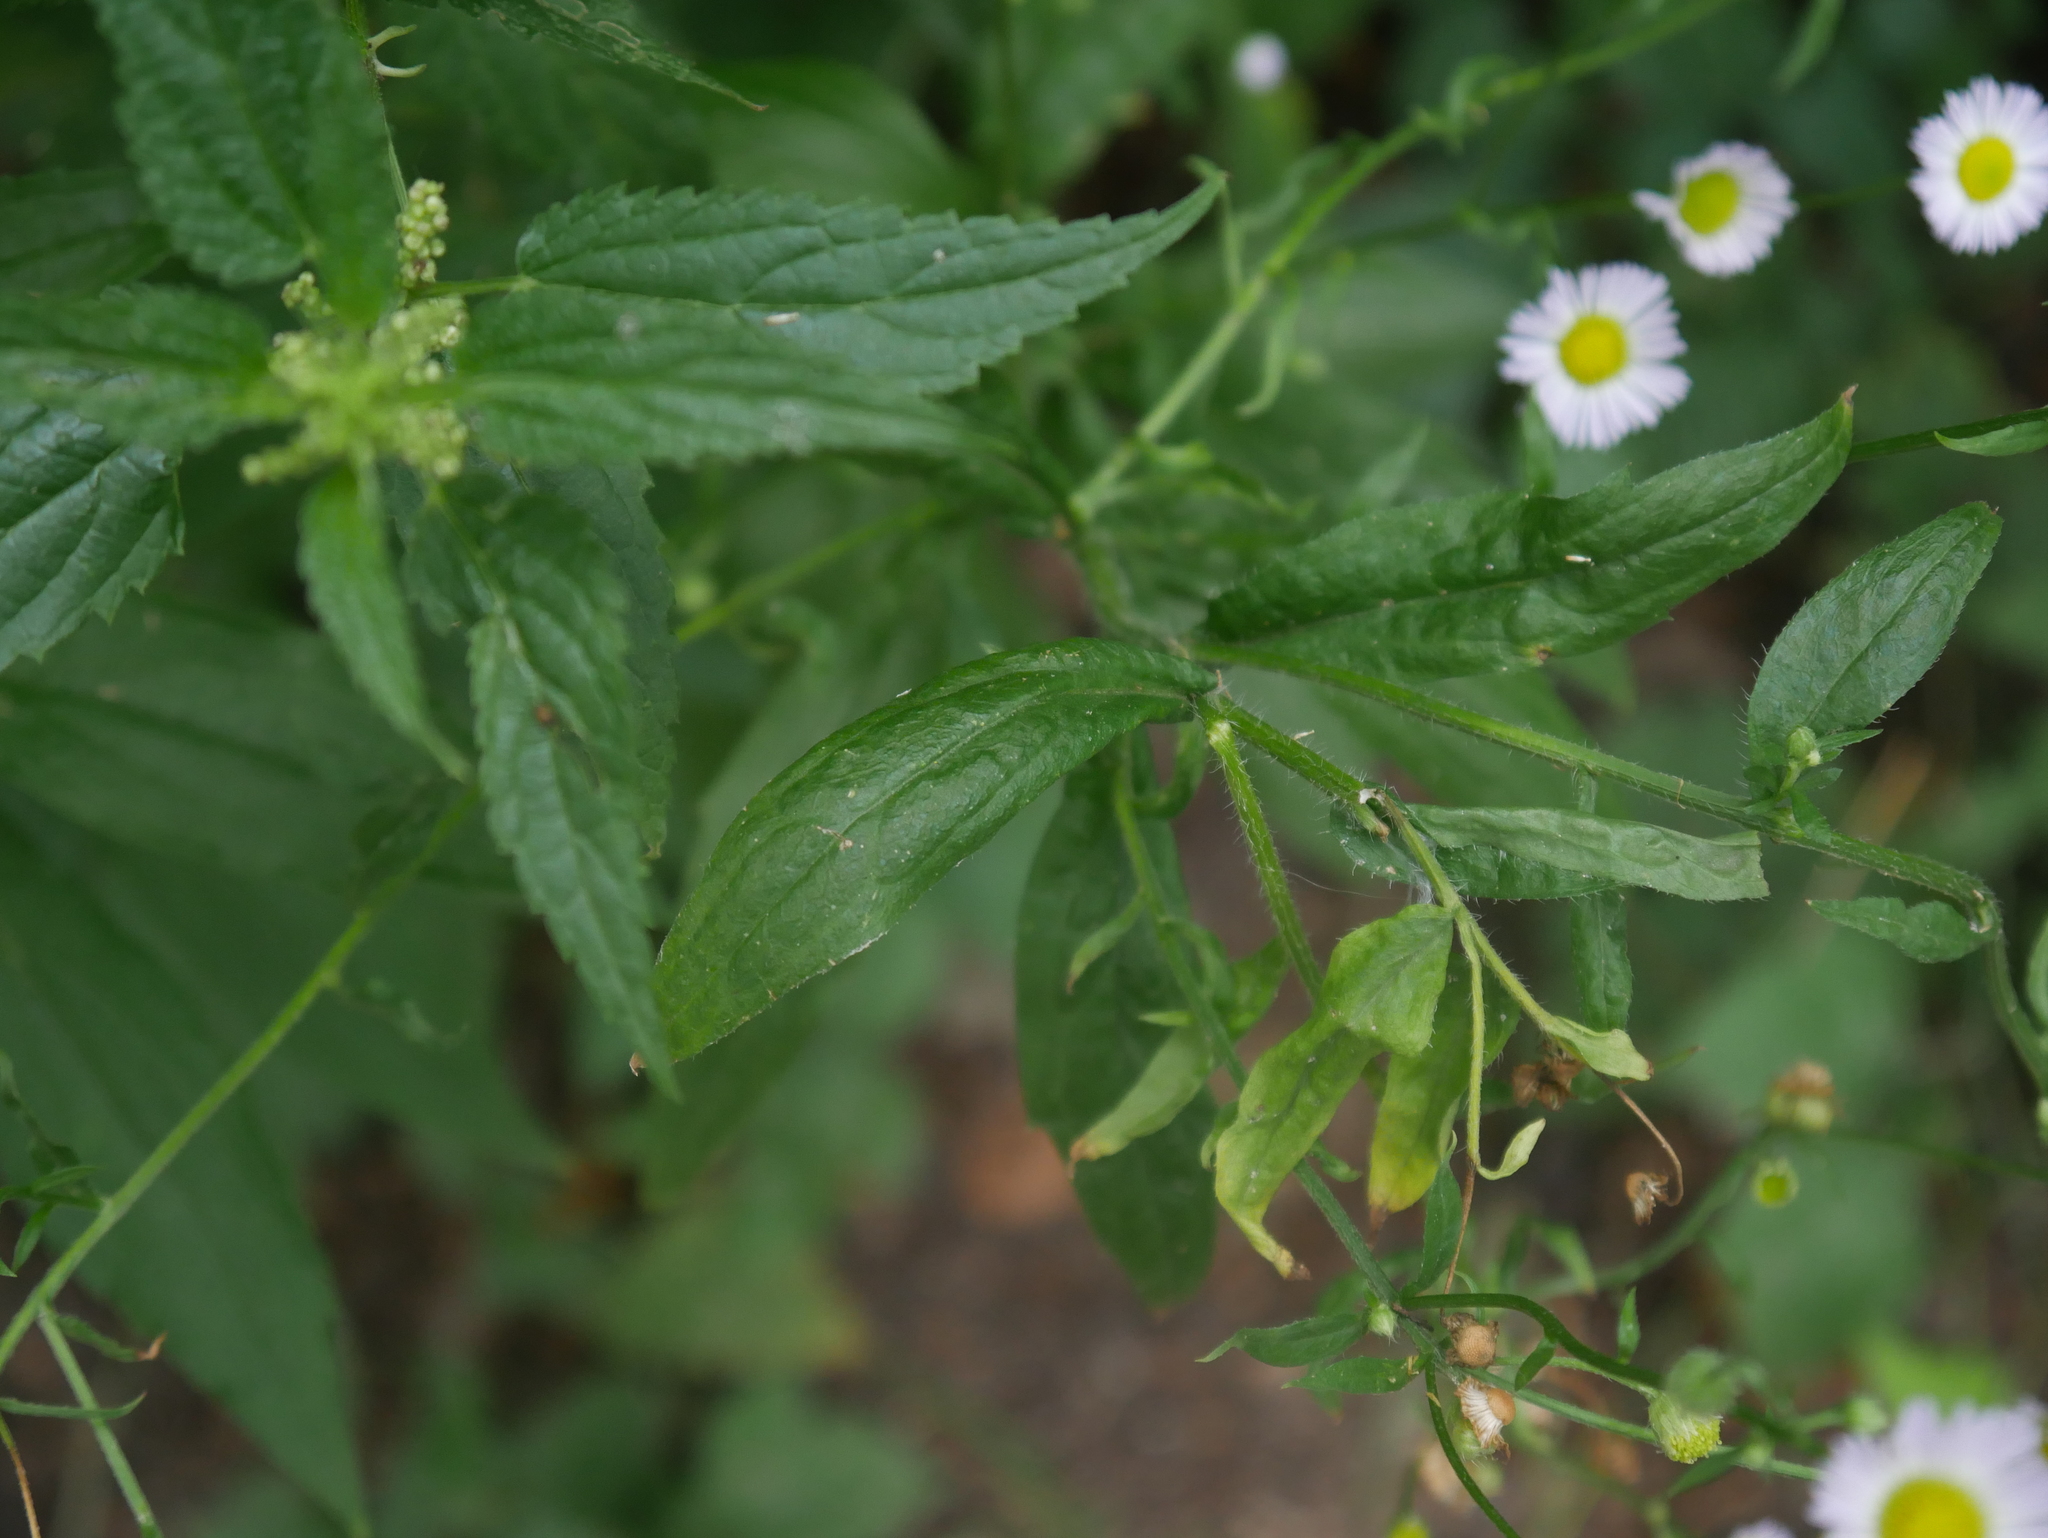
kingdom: Plantae
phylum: Tracheophyta
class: Magnoliopsida
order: Asterales
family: Asteraceae
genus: Erigeron
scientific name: Erigeron annuus
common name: Tall fleabane
